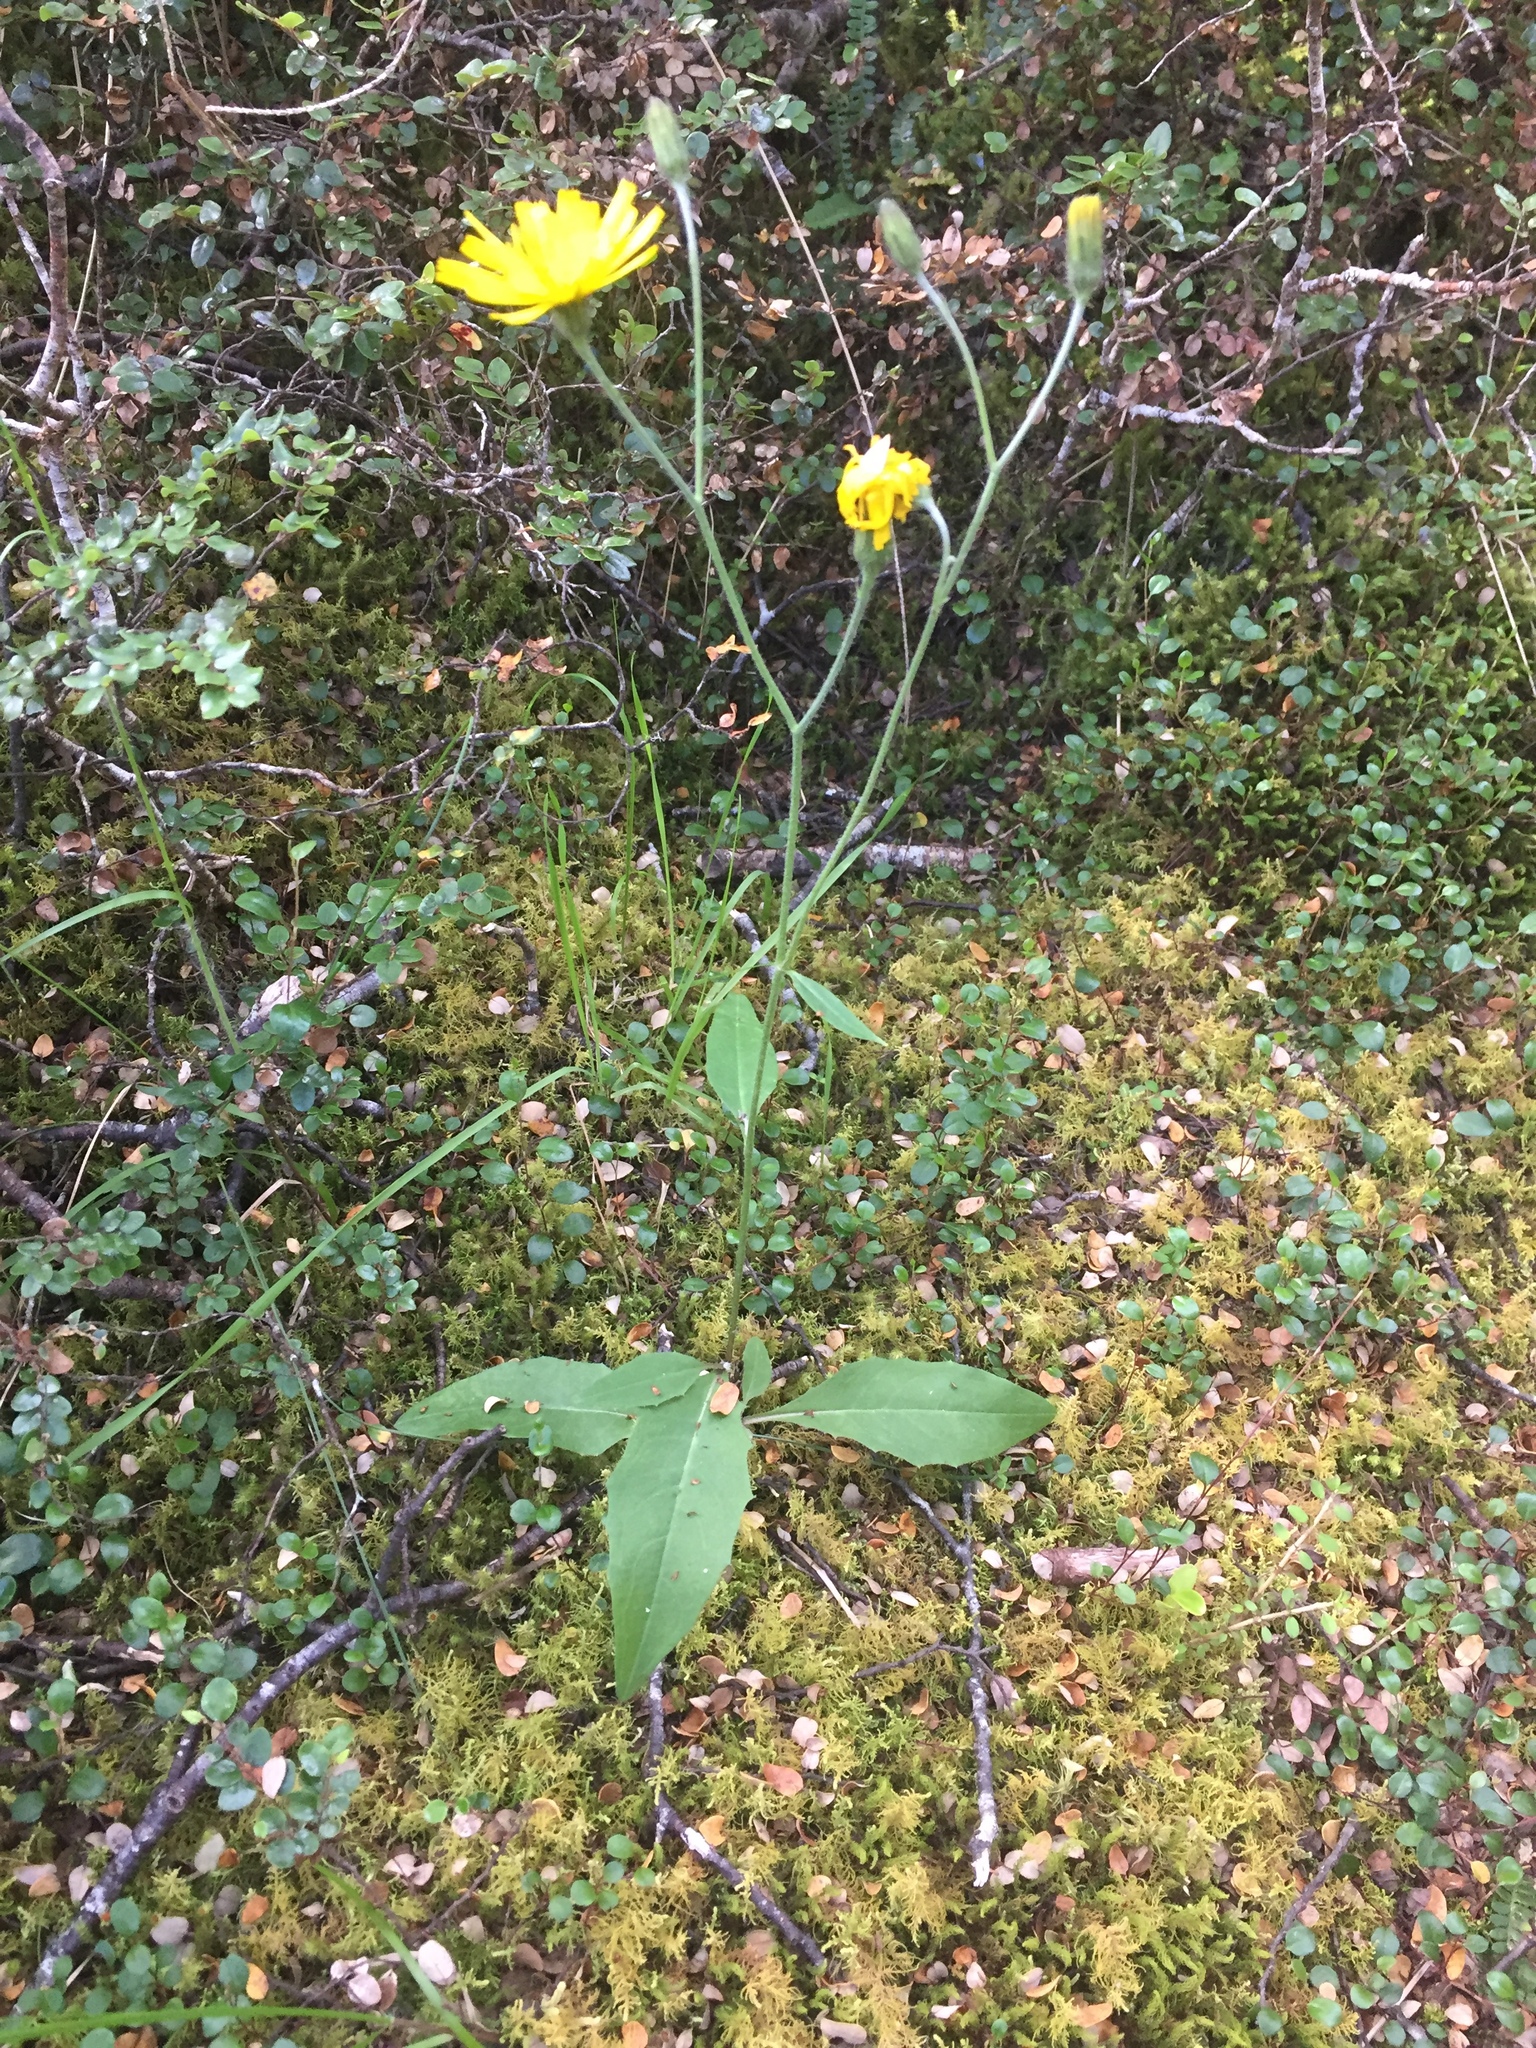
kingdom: Plantae
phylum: Tracheophyta
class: Magnoliopsida
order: Asterales
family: Asteraceae
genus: Hieracium
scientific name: Hieracium lepidulum
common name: Irregular-toothed hawkweed
